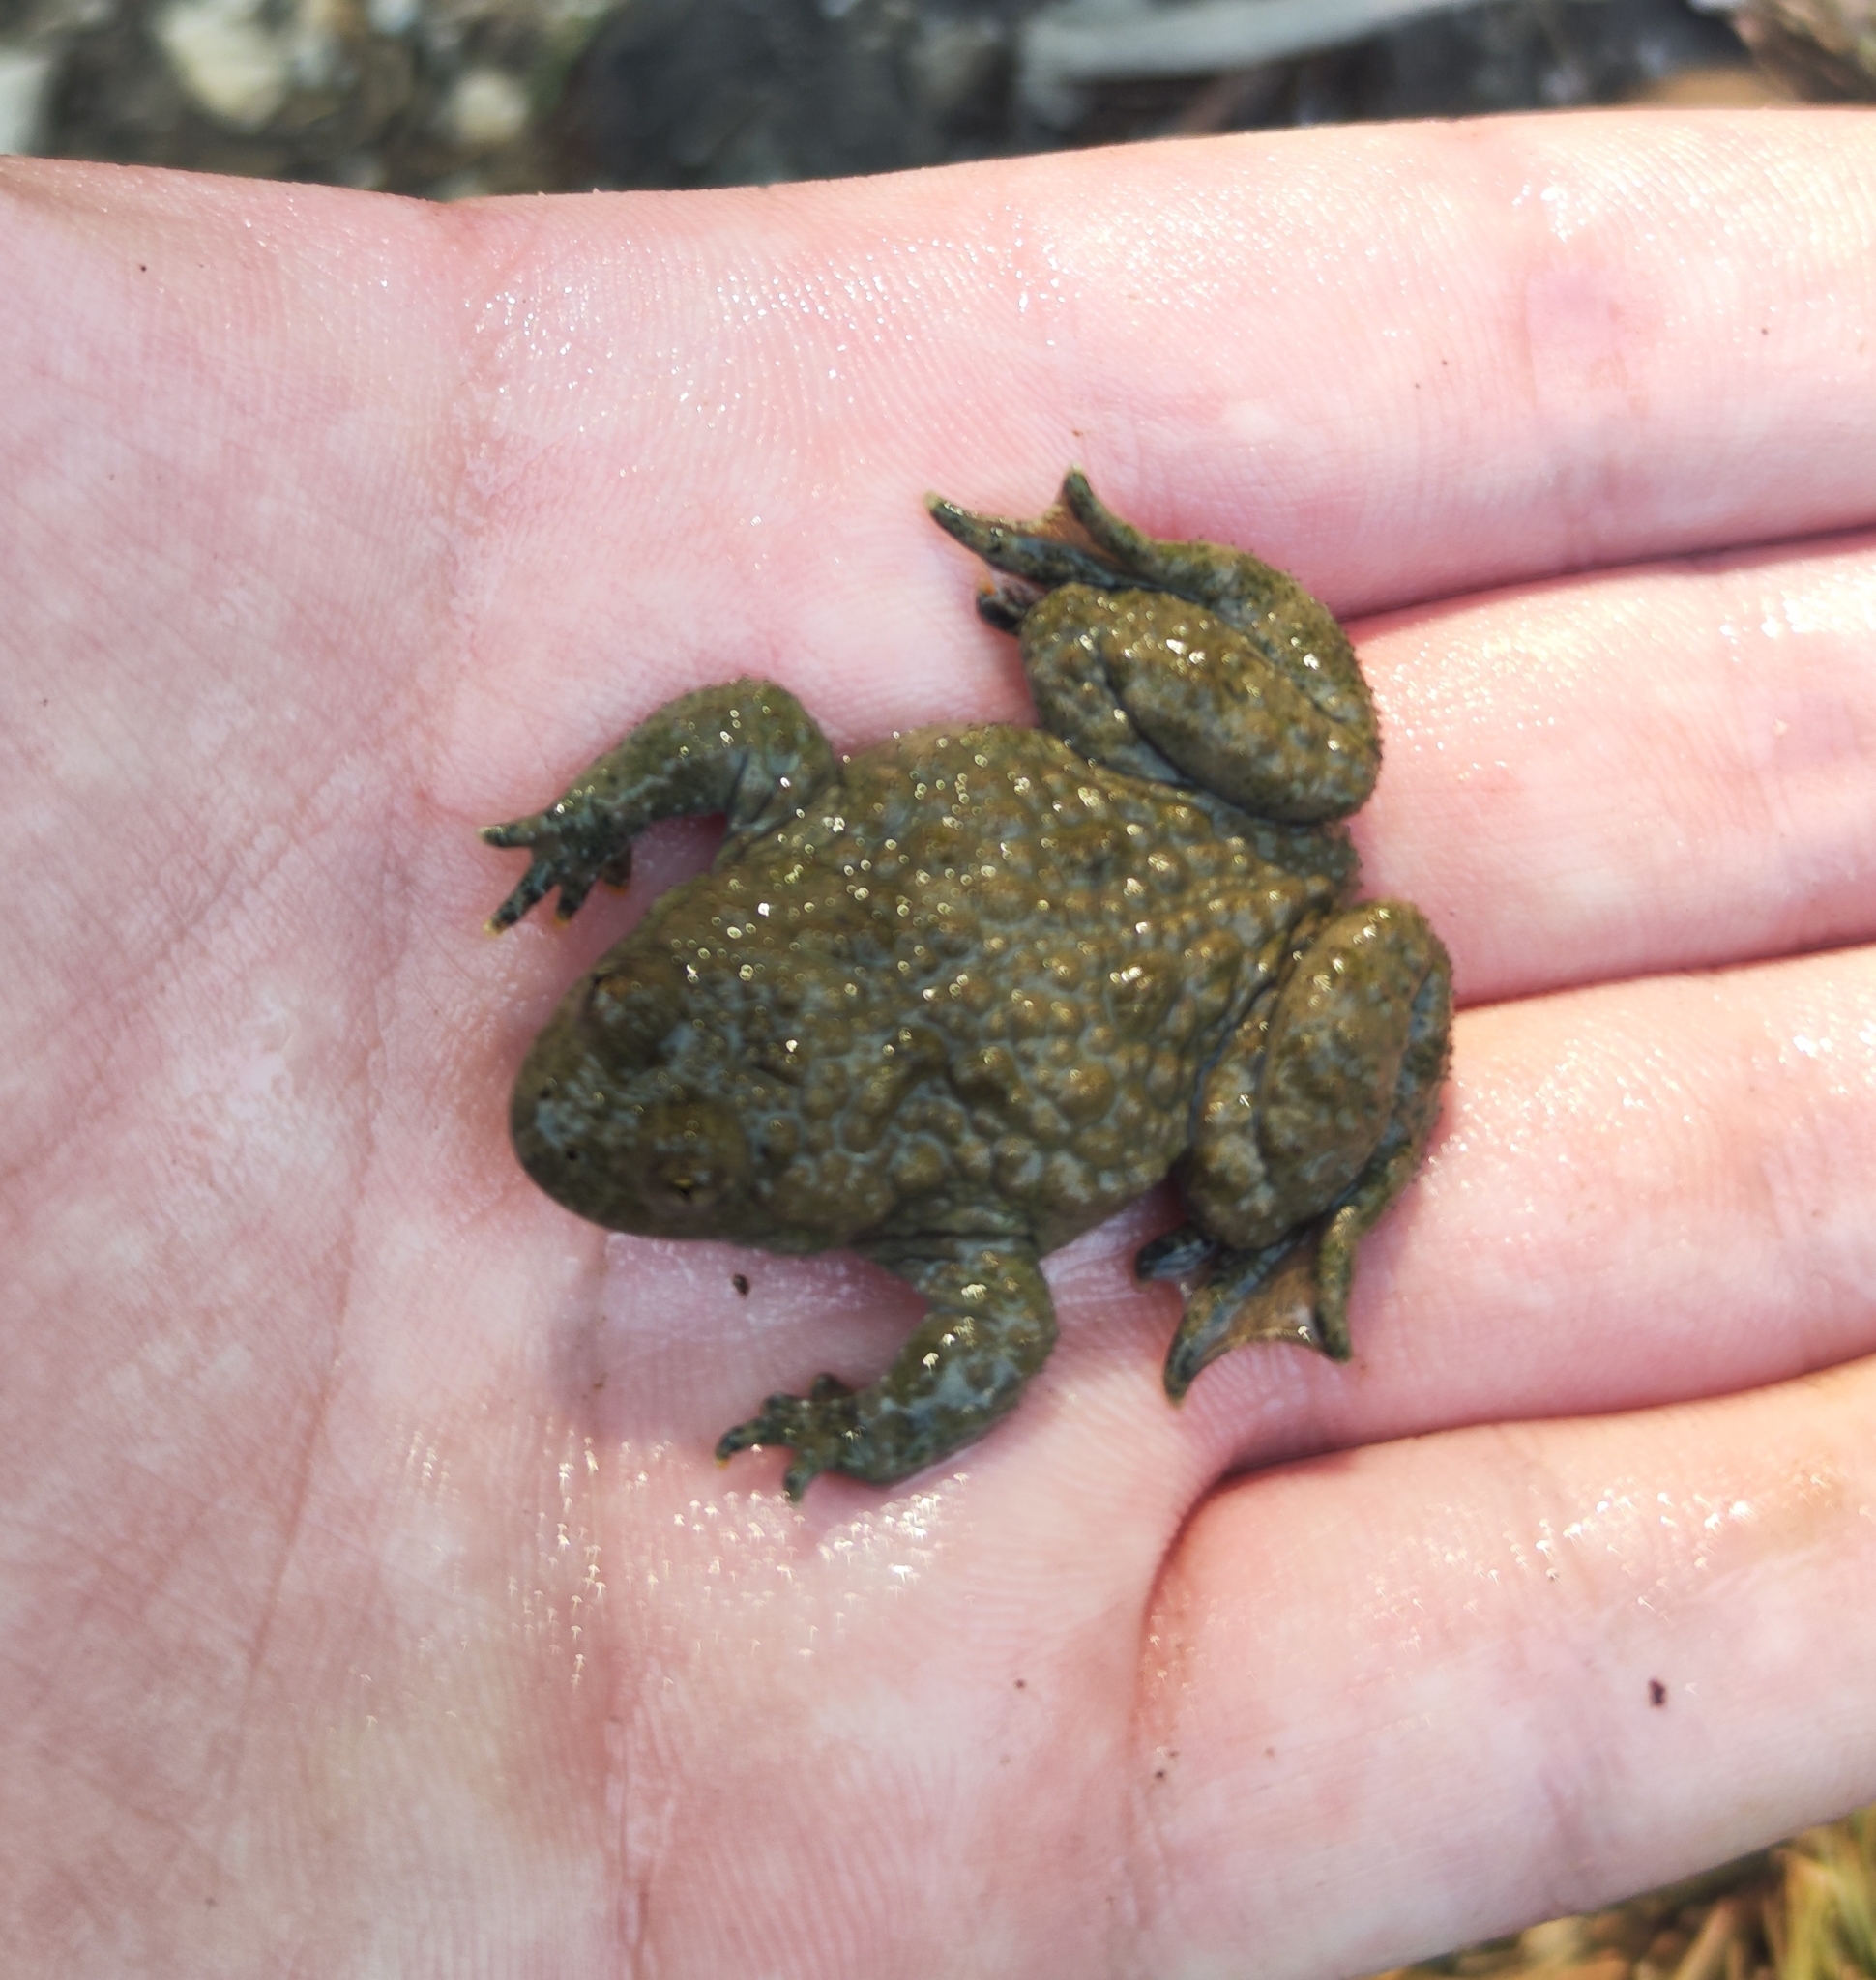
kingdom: Animalia
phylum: Chordata
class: Amphibia
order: Anura
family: Bombinatoridae
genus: Bombina
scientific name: Bombina variegata
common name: Yellow-bellied toad
